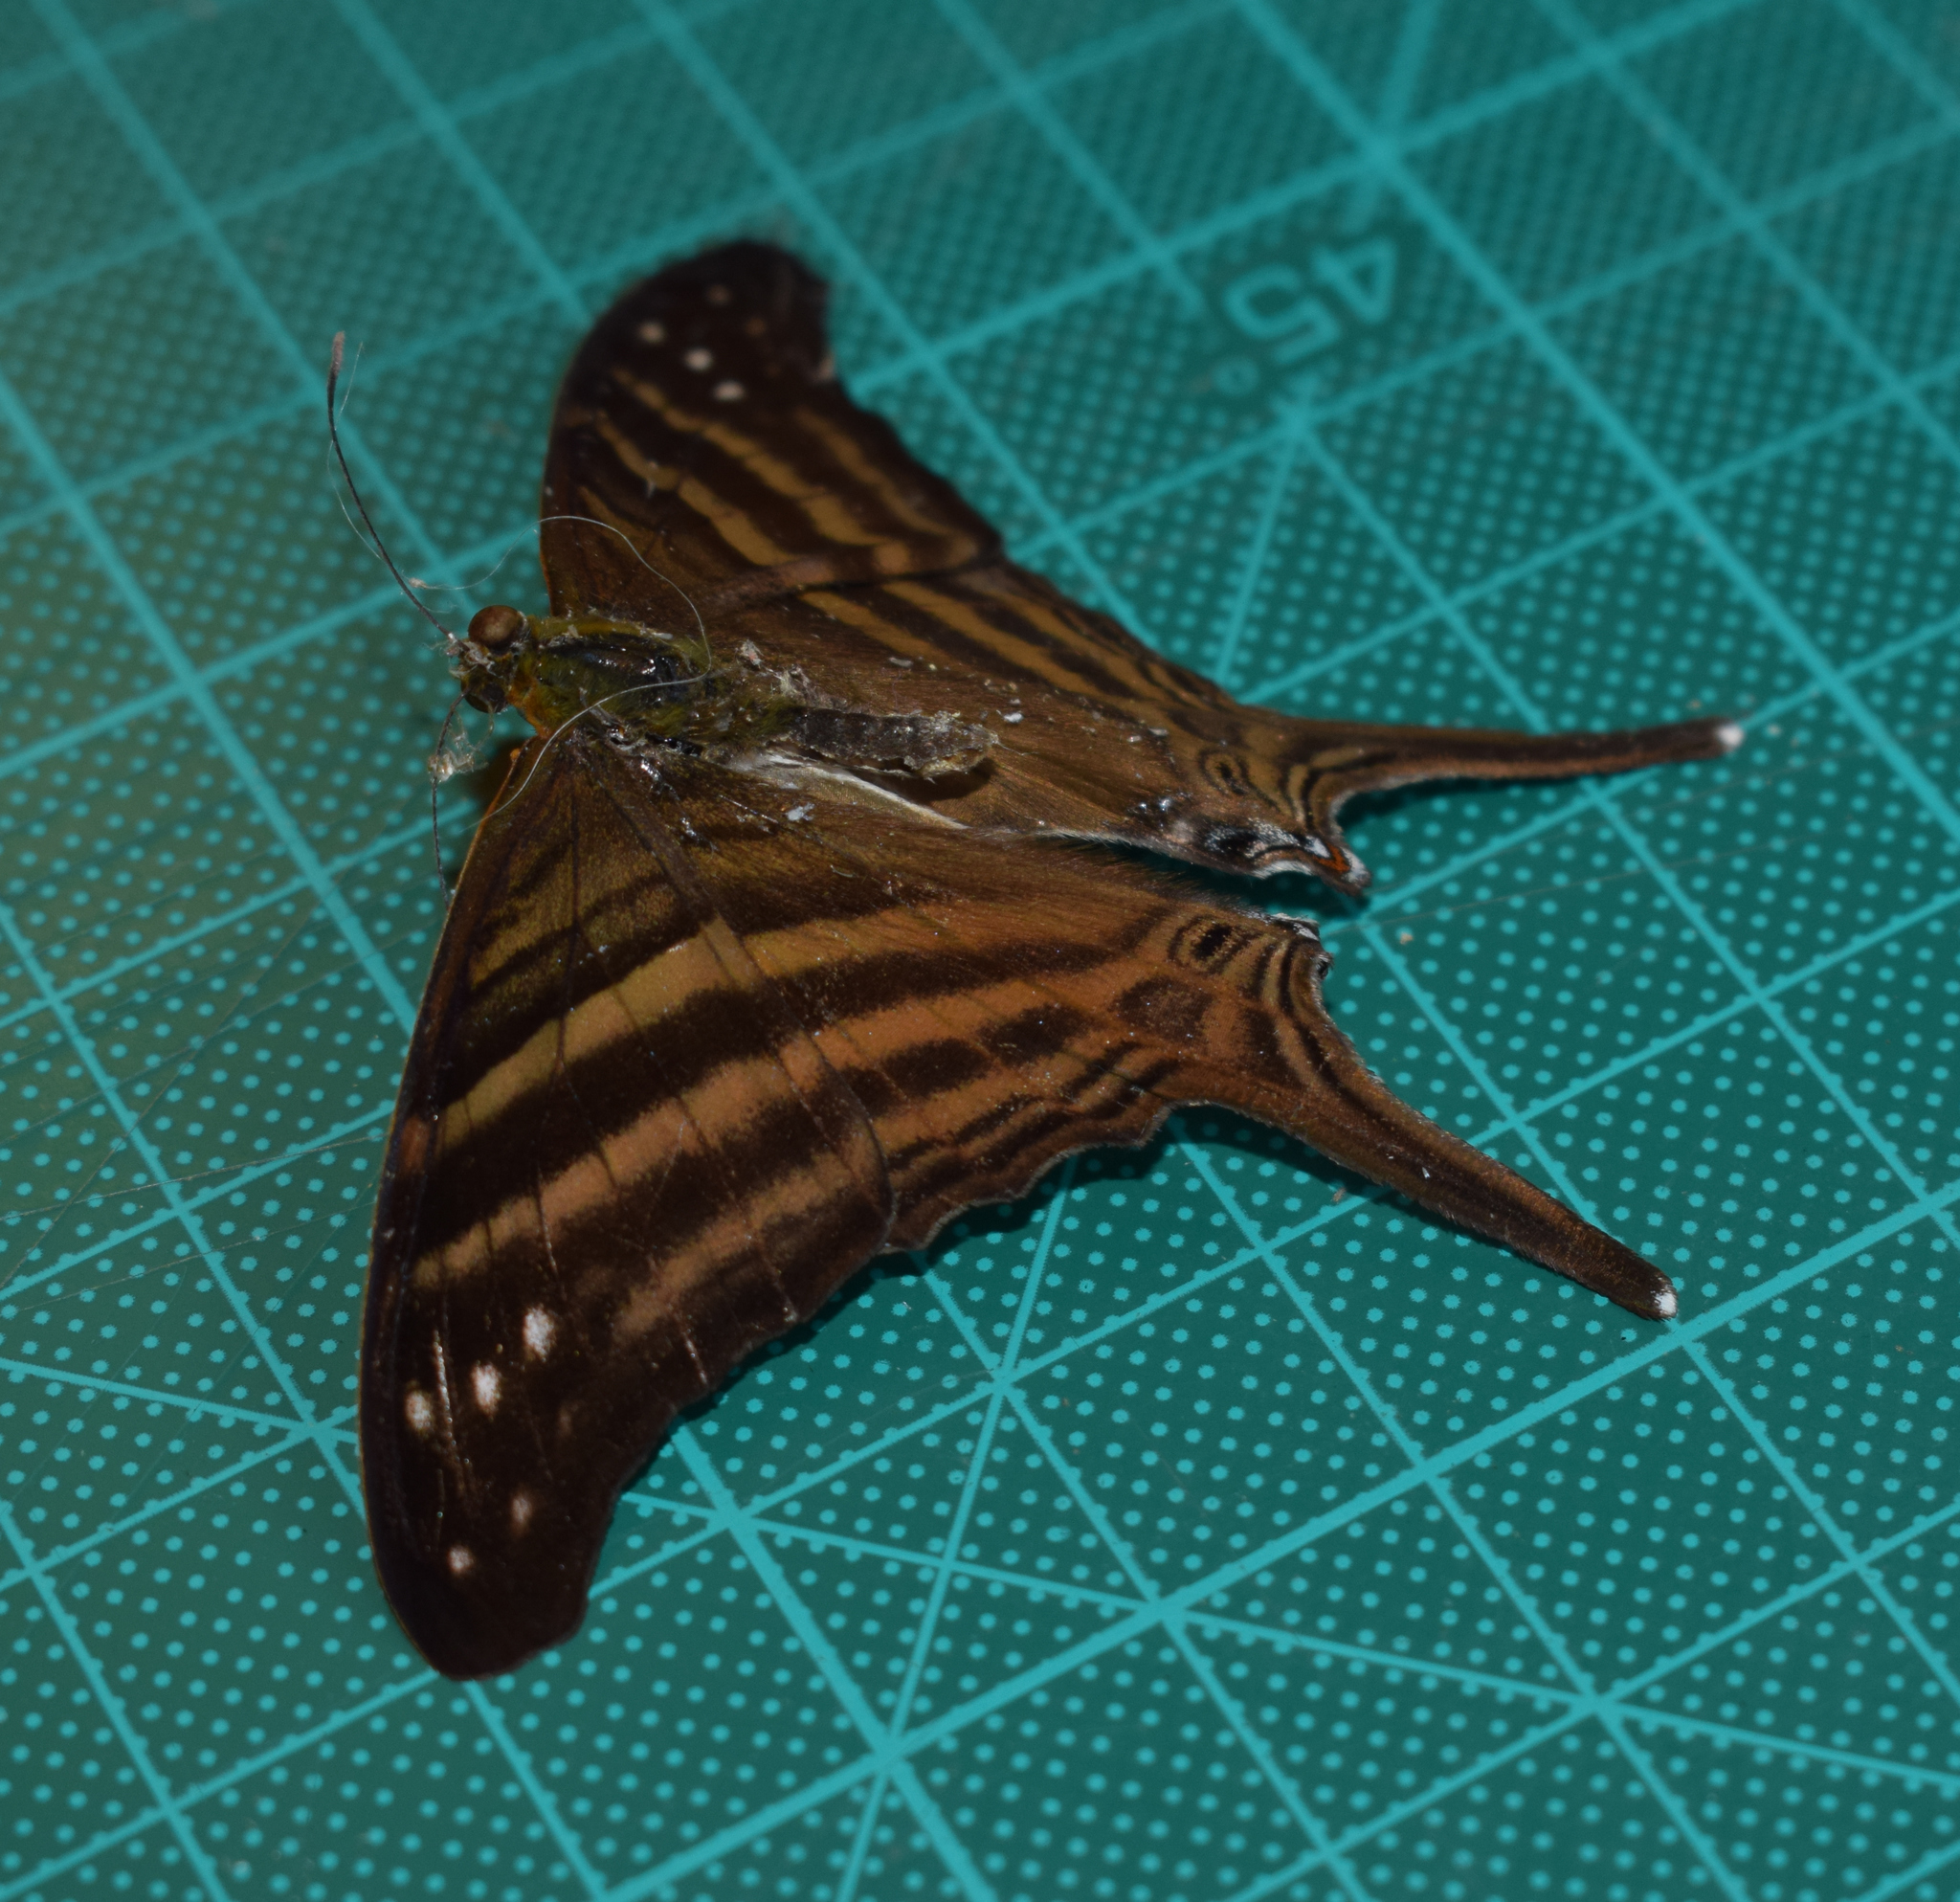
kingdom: Animalia
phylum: Arthropoda
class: Insecta
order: Lepidoptera
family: Nymphalidae
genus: Marpesia
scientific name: Marpesia chiron
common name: Many-banded daggerwing
